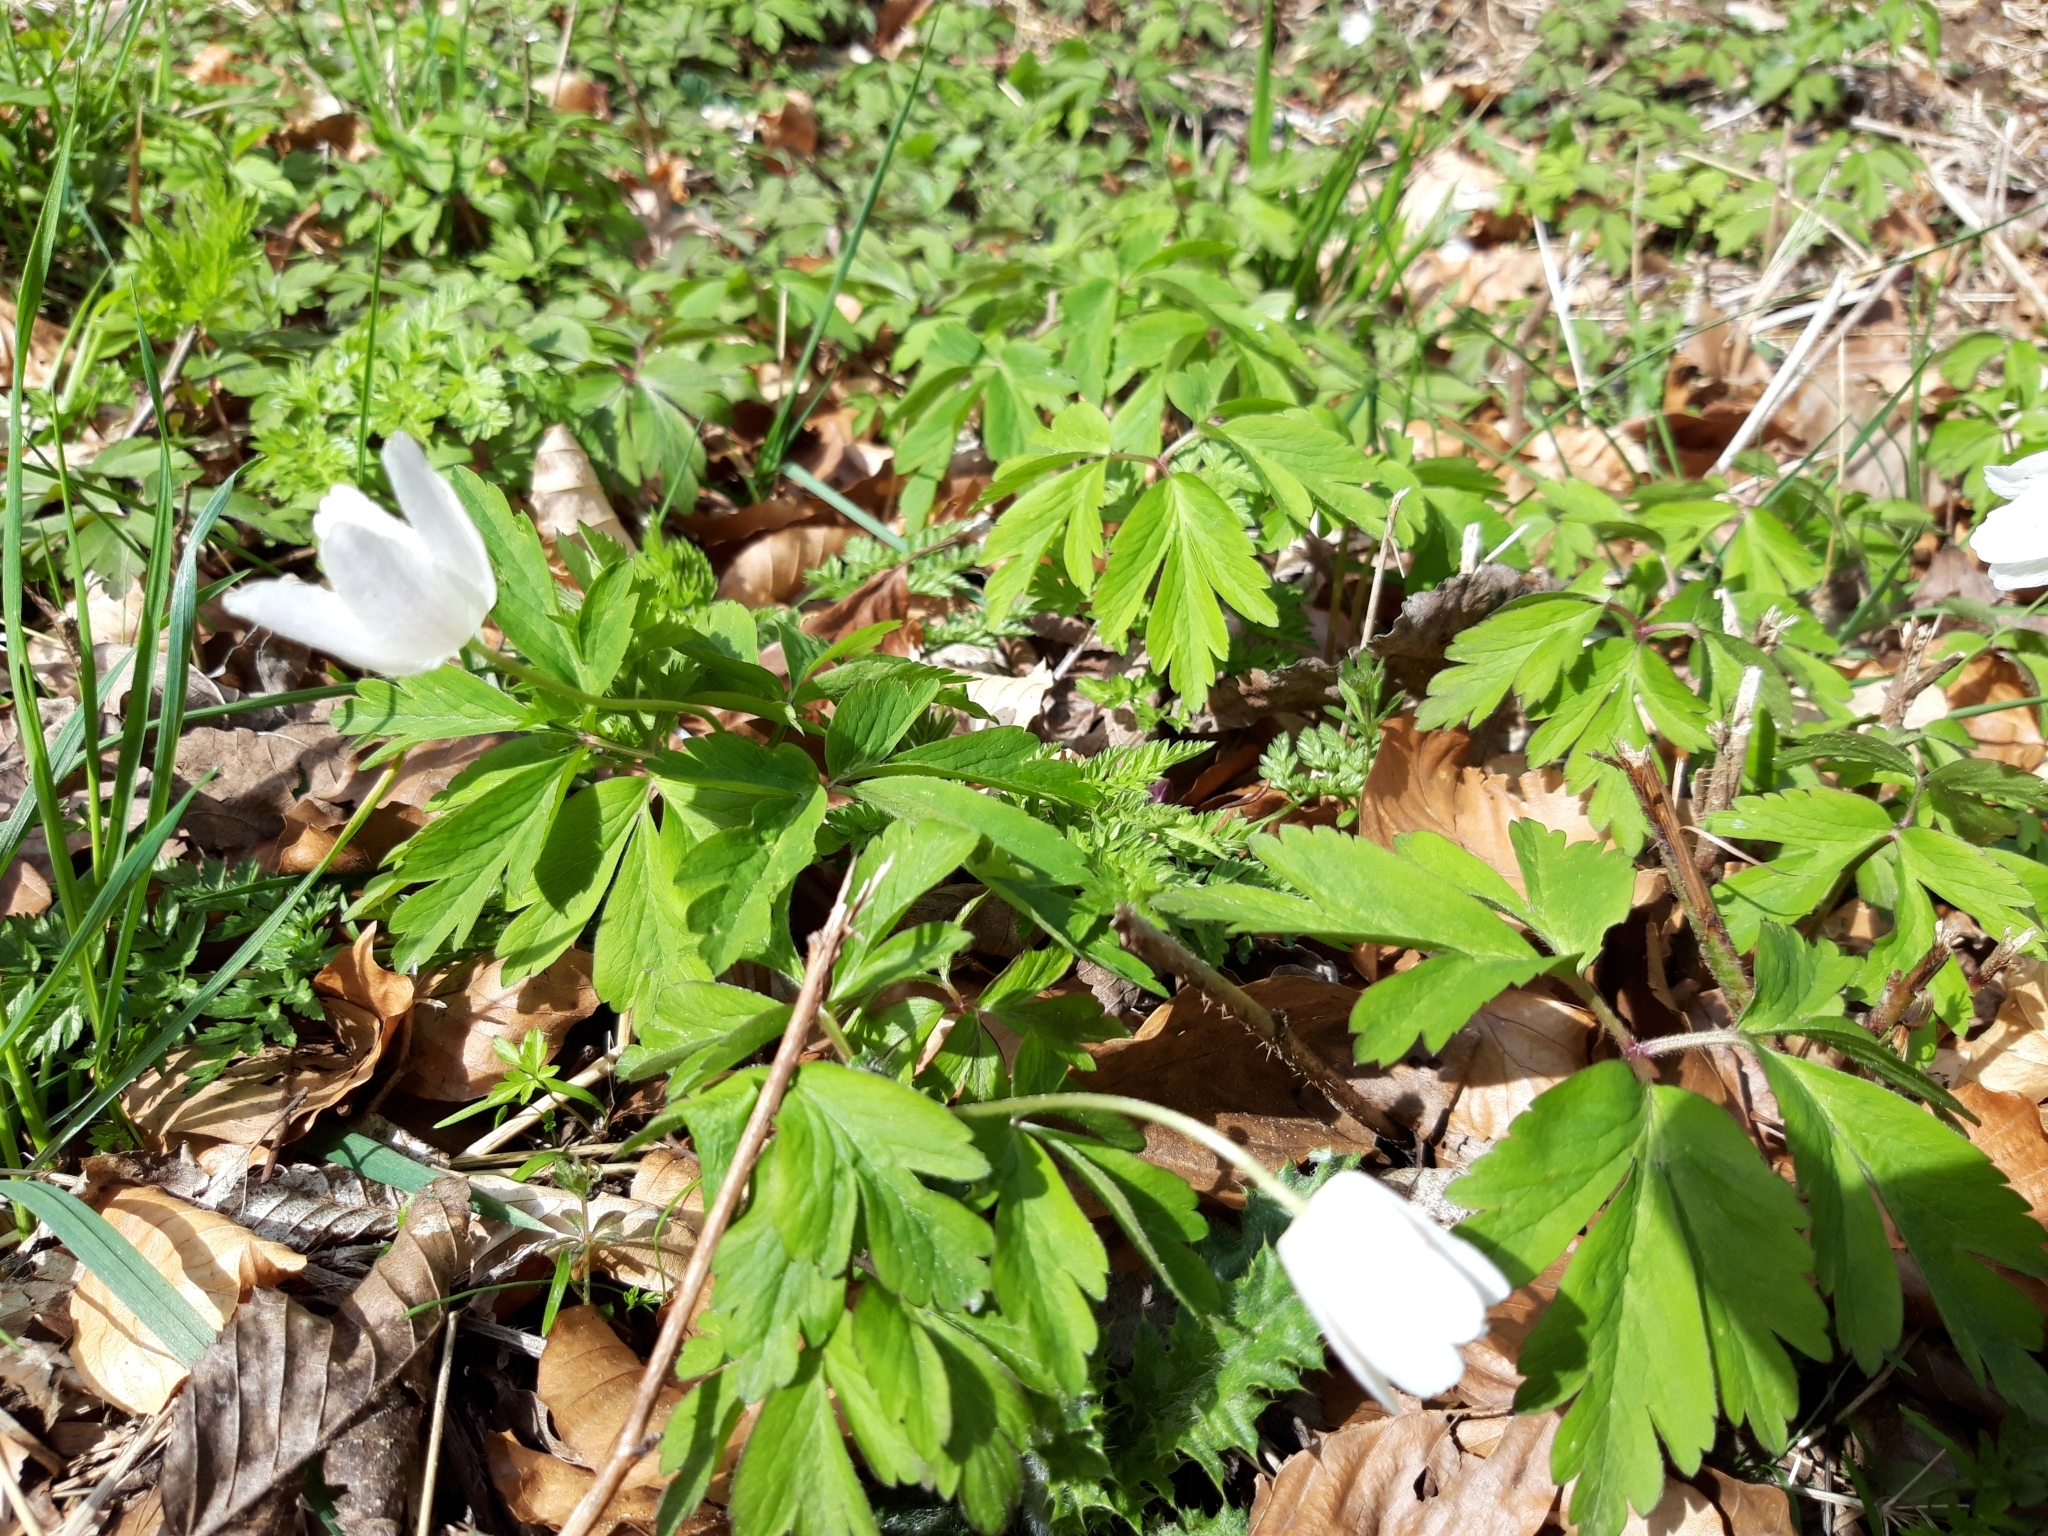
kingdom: Plantae
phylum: Tracheophyta
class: Magnoliopsida
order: Ranunculales
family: Ranunculaceae
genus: Anemone
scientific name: Anemone nemorosa
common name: Wood anemone
